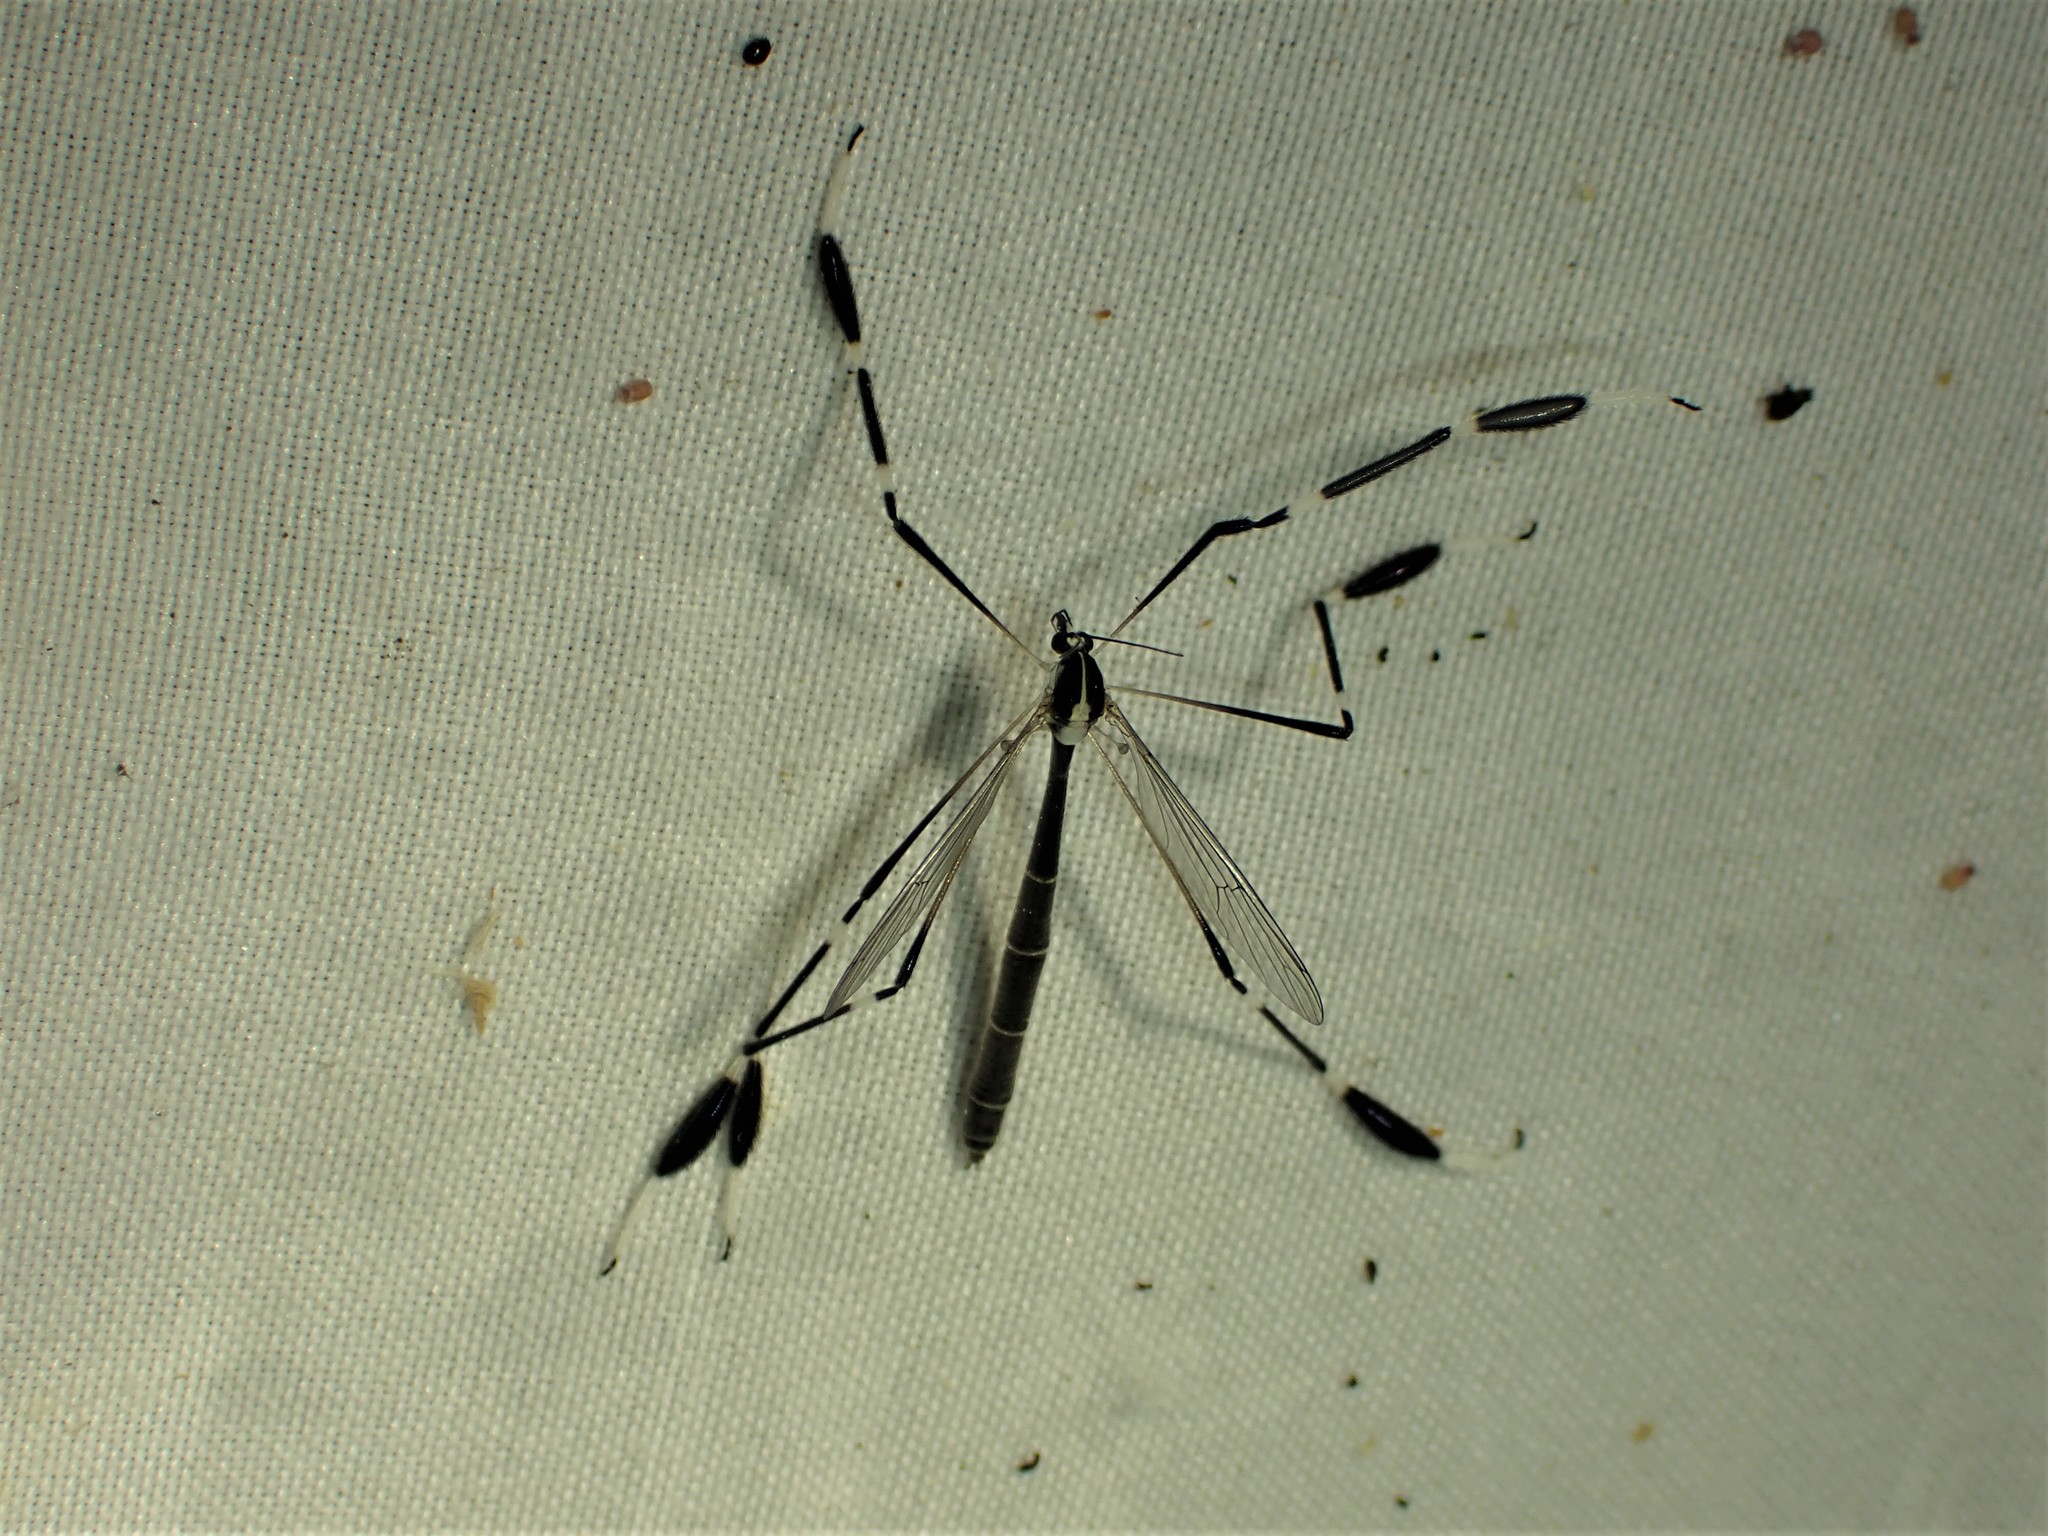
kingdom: Animalia
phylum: Arthropoda
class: Insecta
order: Diptera
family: Ptychopteridae
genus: Bittacomorpha
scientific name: Bittacomorpha clavipes
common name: Eastern phantom crane fly
